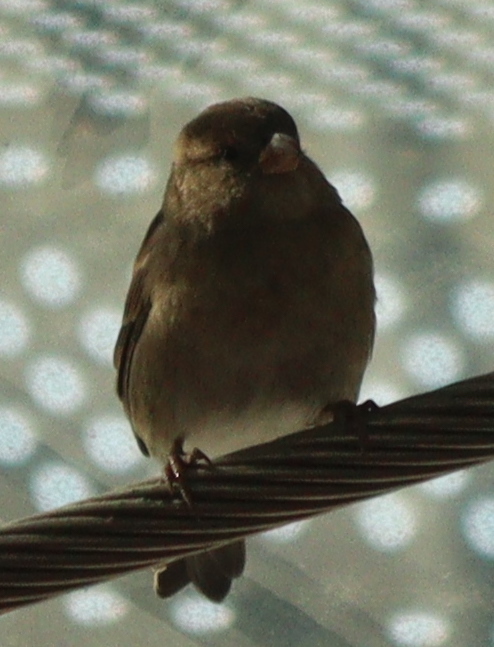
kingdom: Animalia
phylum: Chordata
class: Aves
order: Passeriformes
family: Passeridae
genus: Passer
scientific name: Passer domesticus
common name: House sparrow
